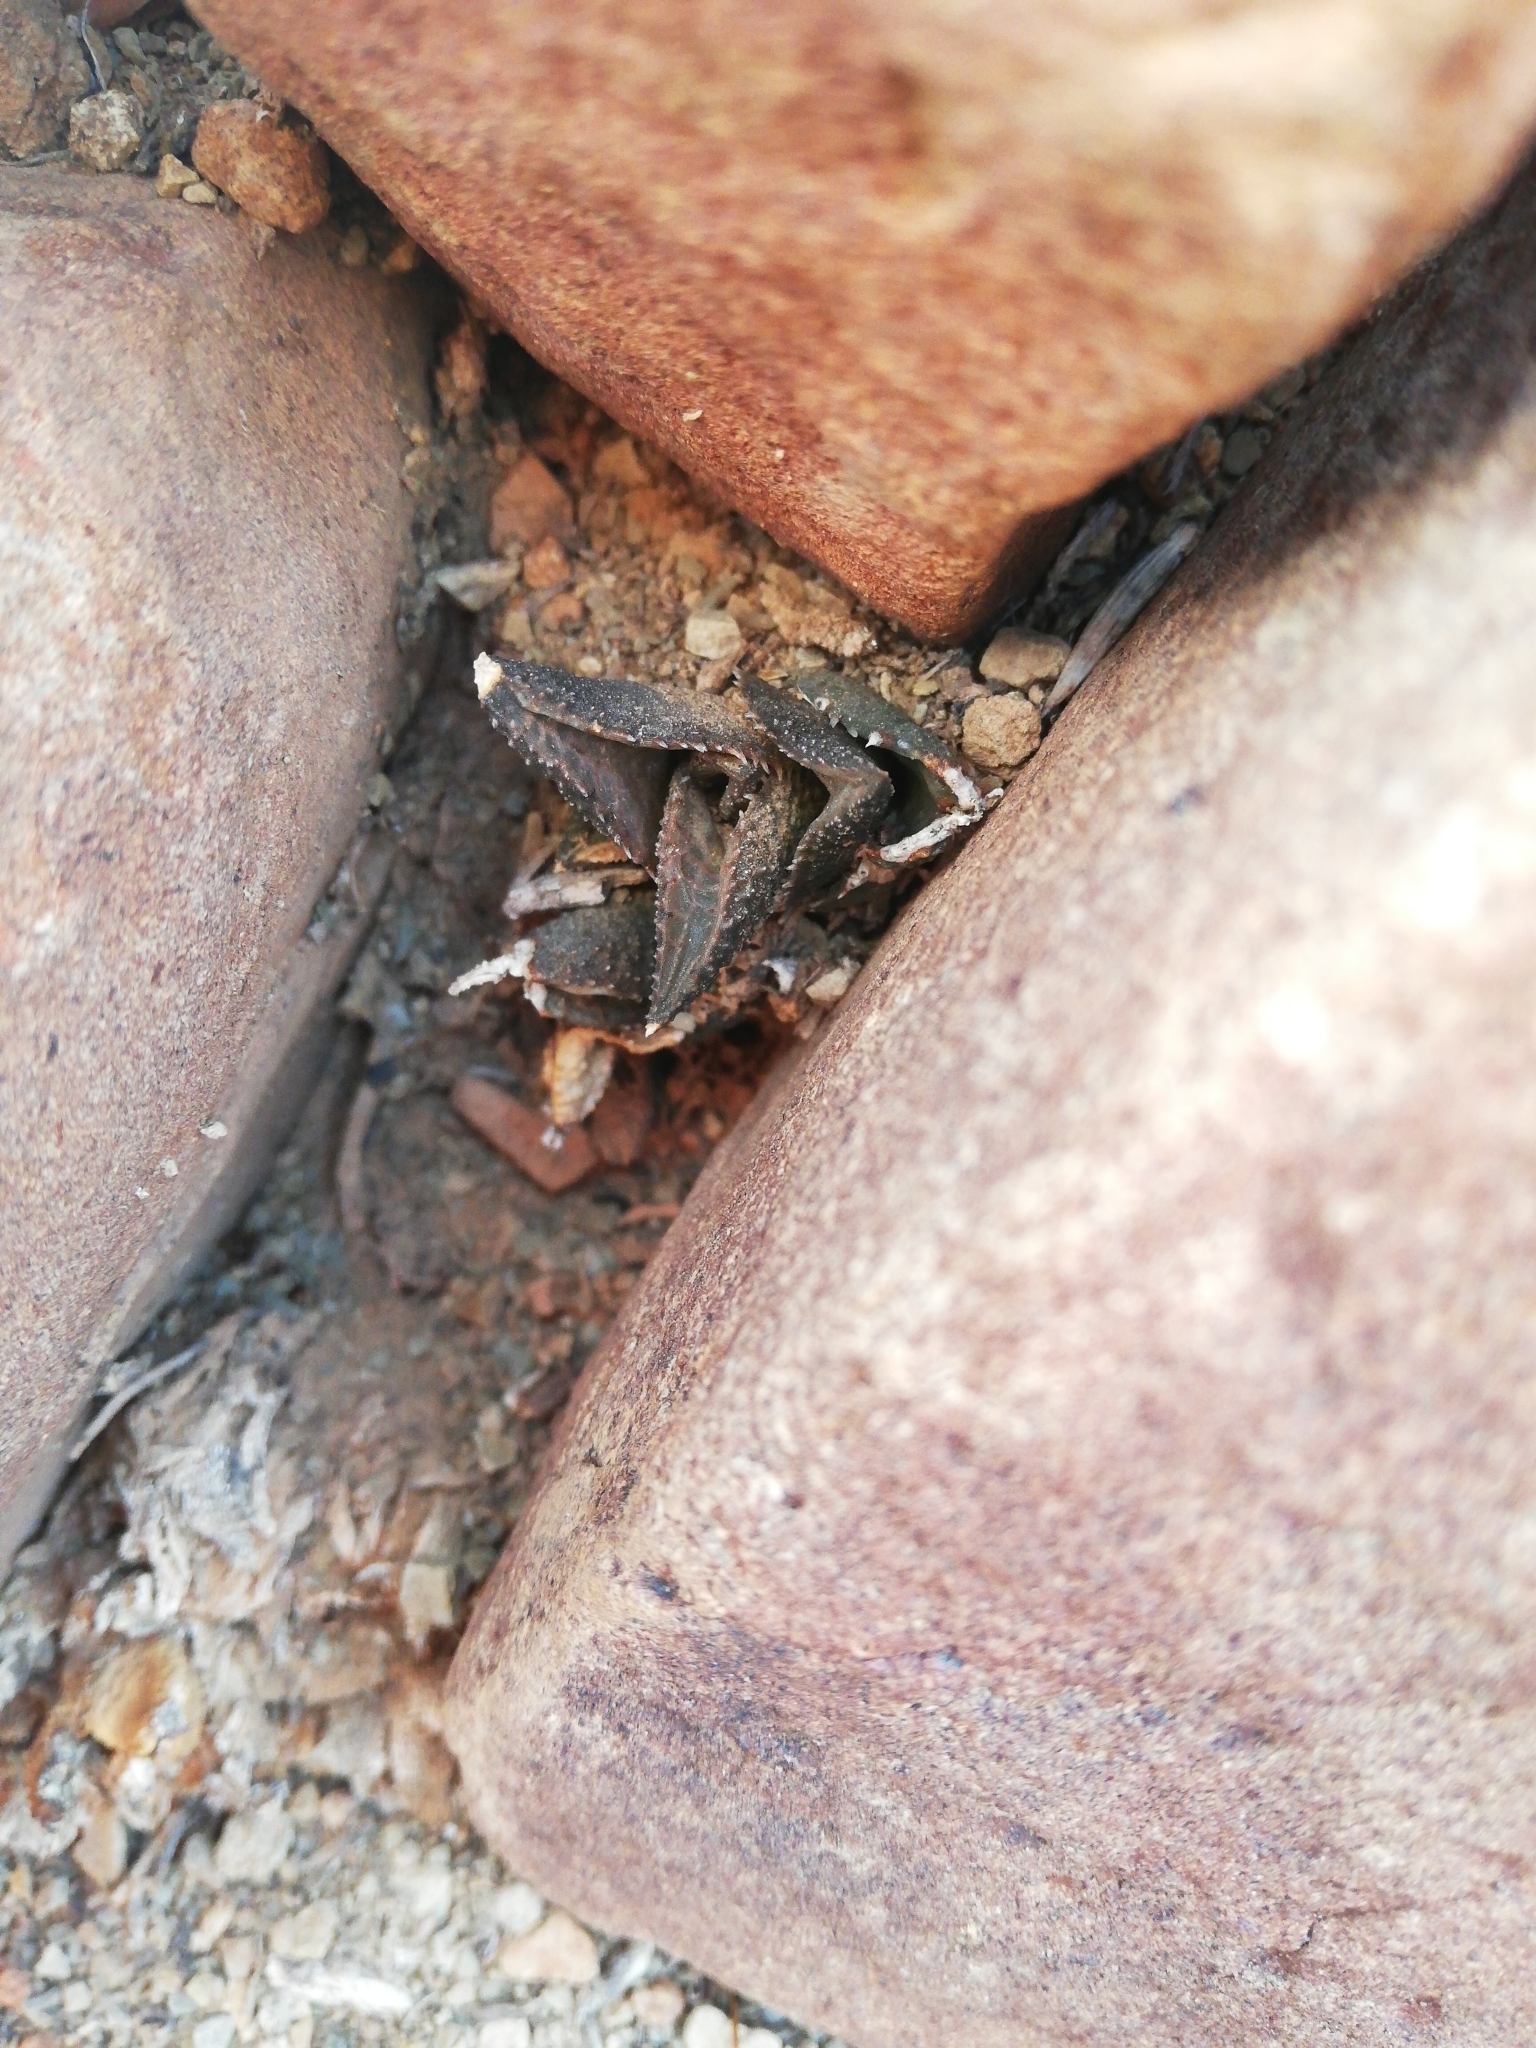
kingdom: Plantae
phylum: Tracheophyta
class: Liliopsida
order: Asparagales
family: Asphodelaceae
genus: Haworthiopsis
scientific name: Haworthiopsis tessellata
